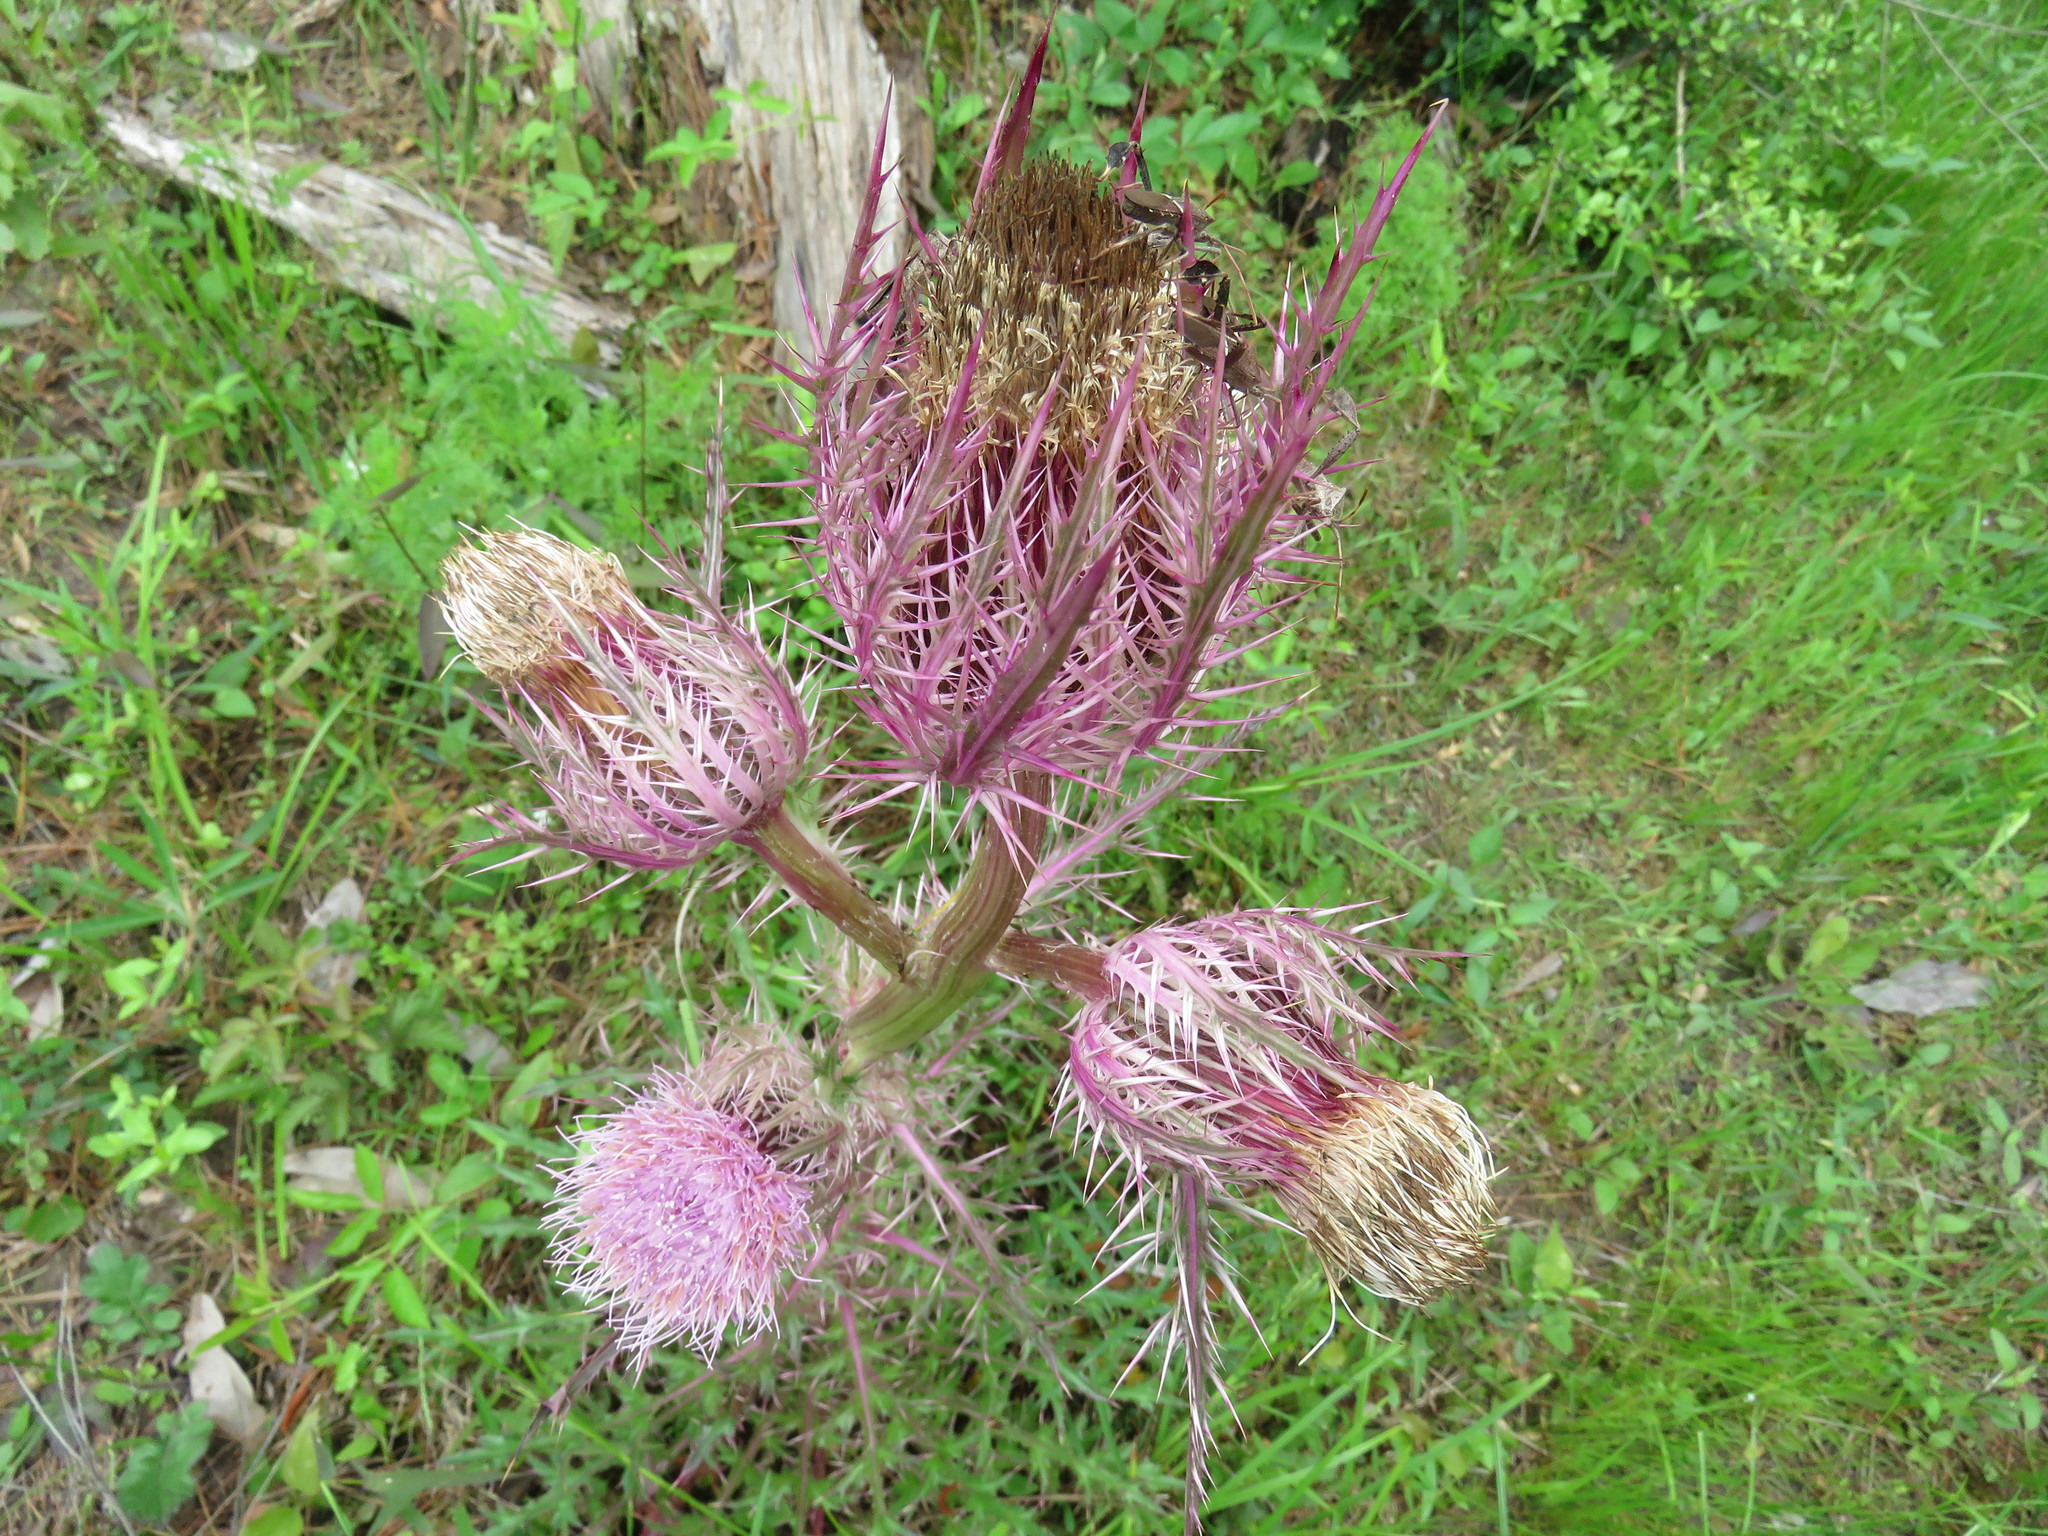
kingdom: Plantae
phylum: Tracheophyta
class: Magnoliopsida
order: Asterales
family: Asteraceae
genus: Cirsium
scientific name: Cirsium horridulum
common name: Bristly thistle
